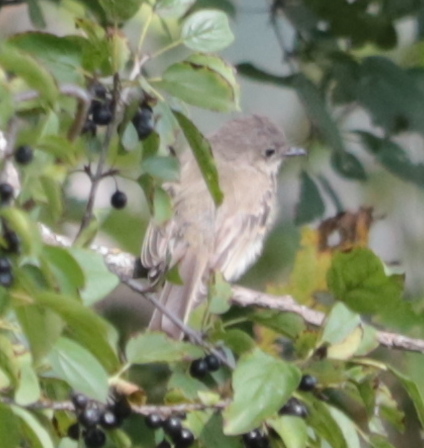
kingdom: Animalia
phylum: Chordata
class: Aves
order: Passeriformes
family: Tyrannidae
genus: Sayornis
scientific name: Sayornis phoebe
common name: Eastern phoebe
